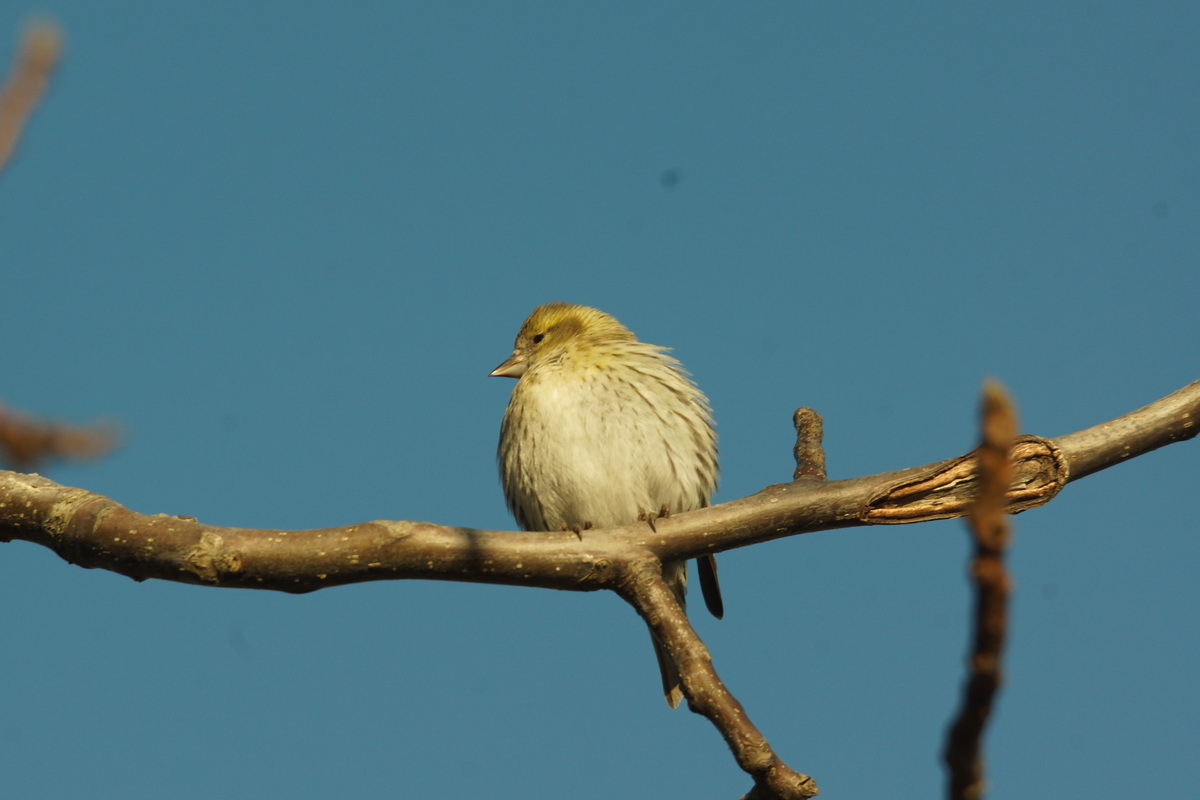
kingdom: Animalia
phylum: Chordata
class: Aves
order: Passeriformes
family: Fringillidae
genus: Spinus
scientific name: Spinus spinus
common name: Eurasian siskin
